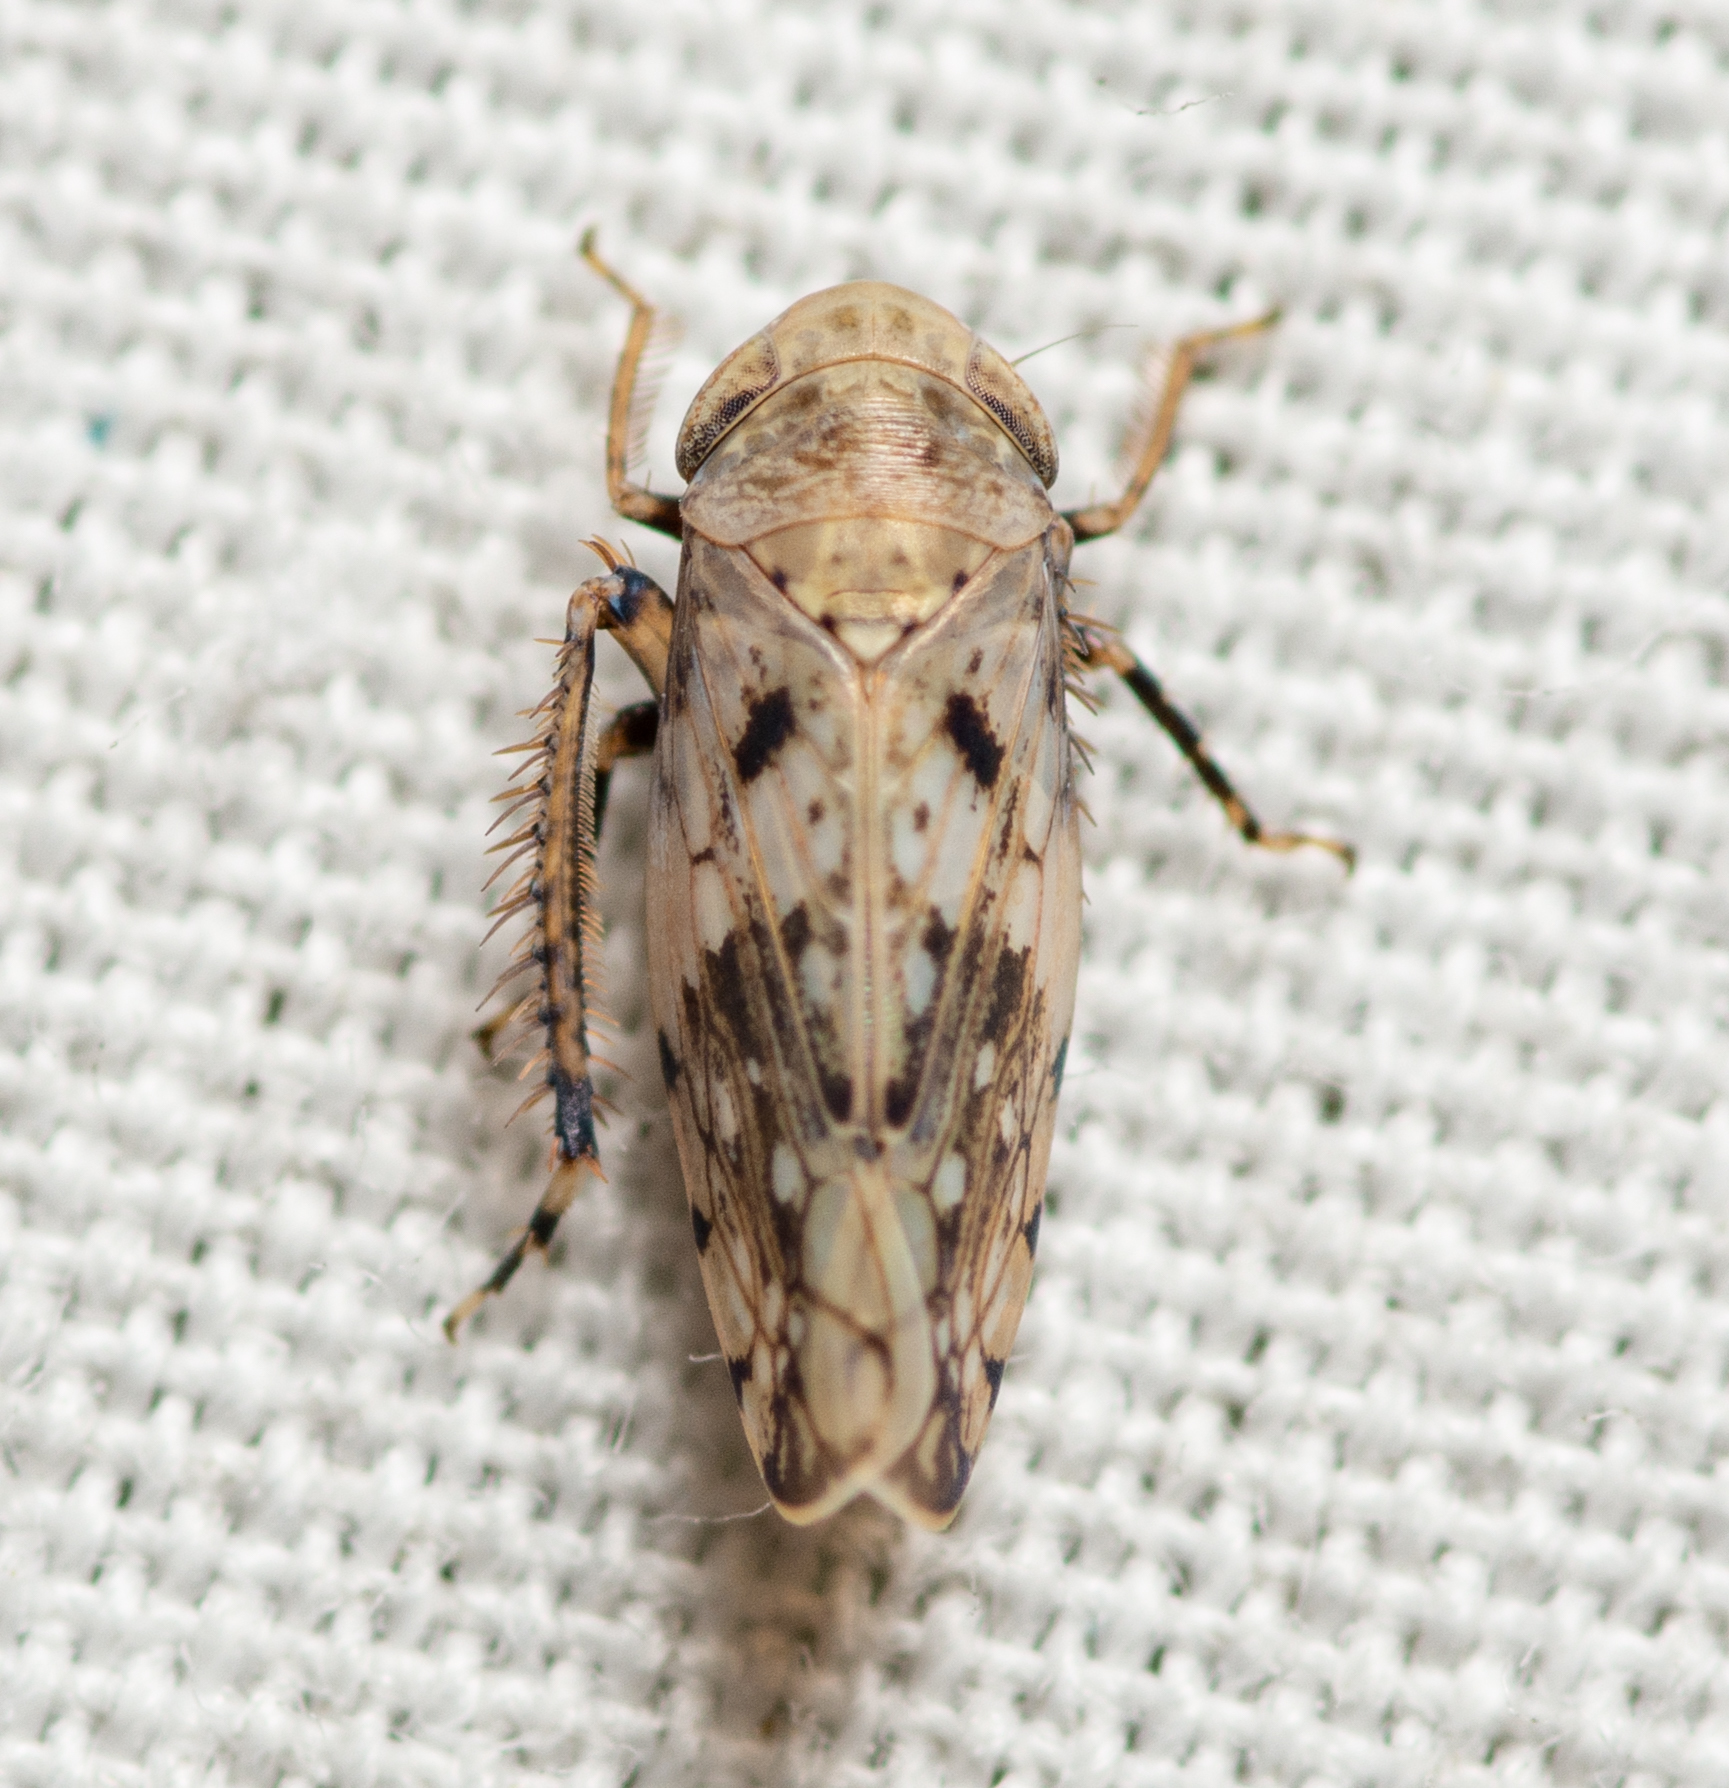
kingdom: Animalia
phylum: Arthropoda
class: Insecta
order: Hemiptera
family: Cicadellidae
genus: Menosoma
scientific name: Menosoma cinctum
